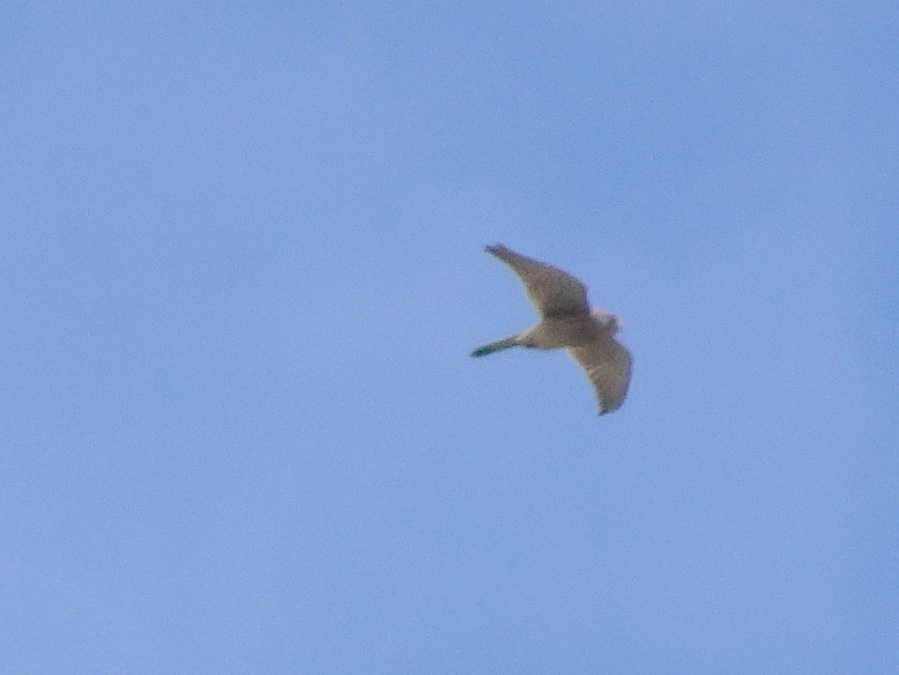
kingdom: Animalia
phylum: Chordata
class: Aves
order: Falconiformes
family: Falconidae
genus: Falco
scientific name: Falco tinnunculus
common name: Common kestrel
